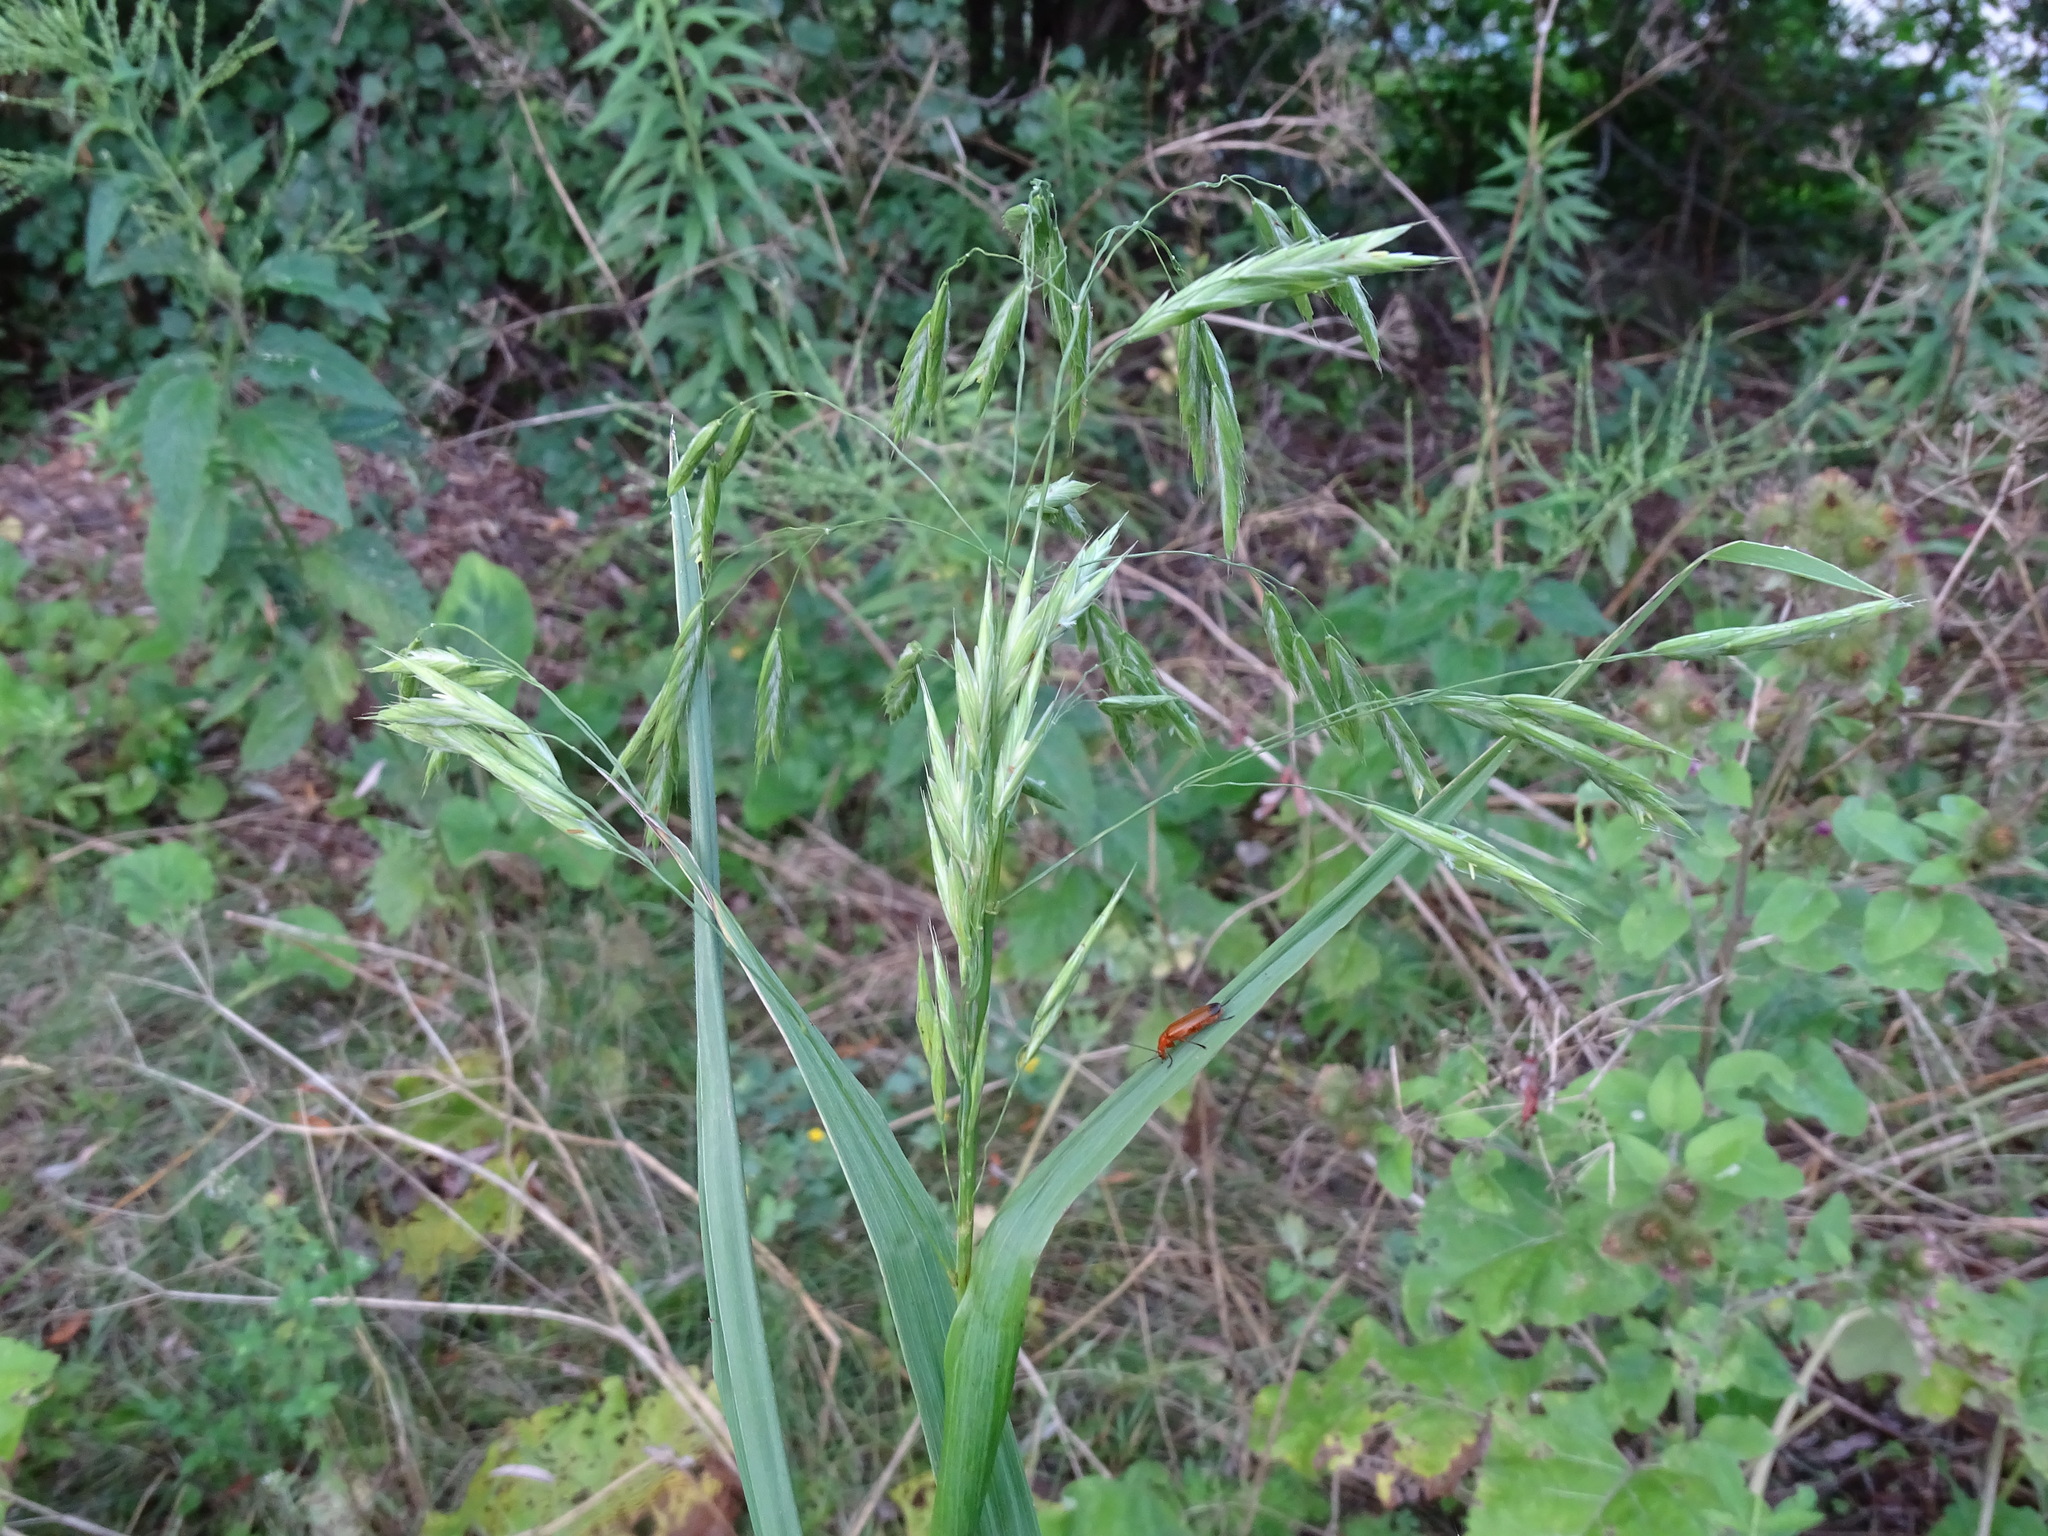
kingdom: Plantae
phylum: Tracheophyta
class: Liliopsida
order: Poales
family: Poaceae
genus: Bromus
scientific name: Bromus latiglumis
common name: Broad-glumed brome
